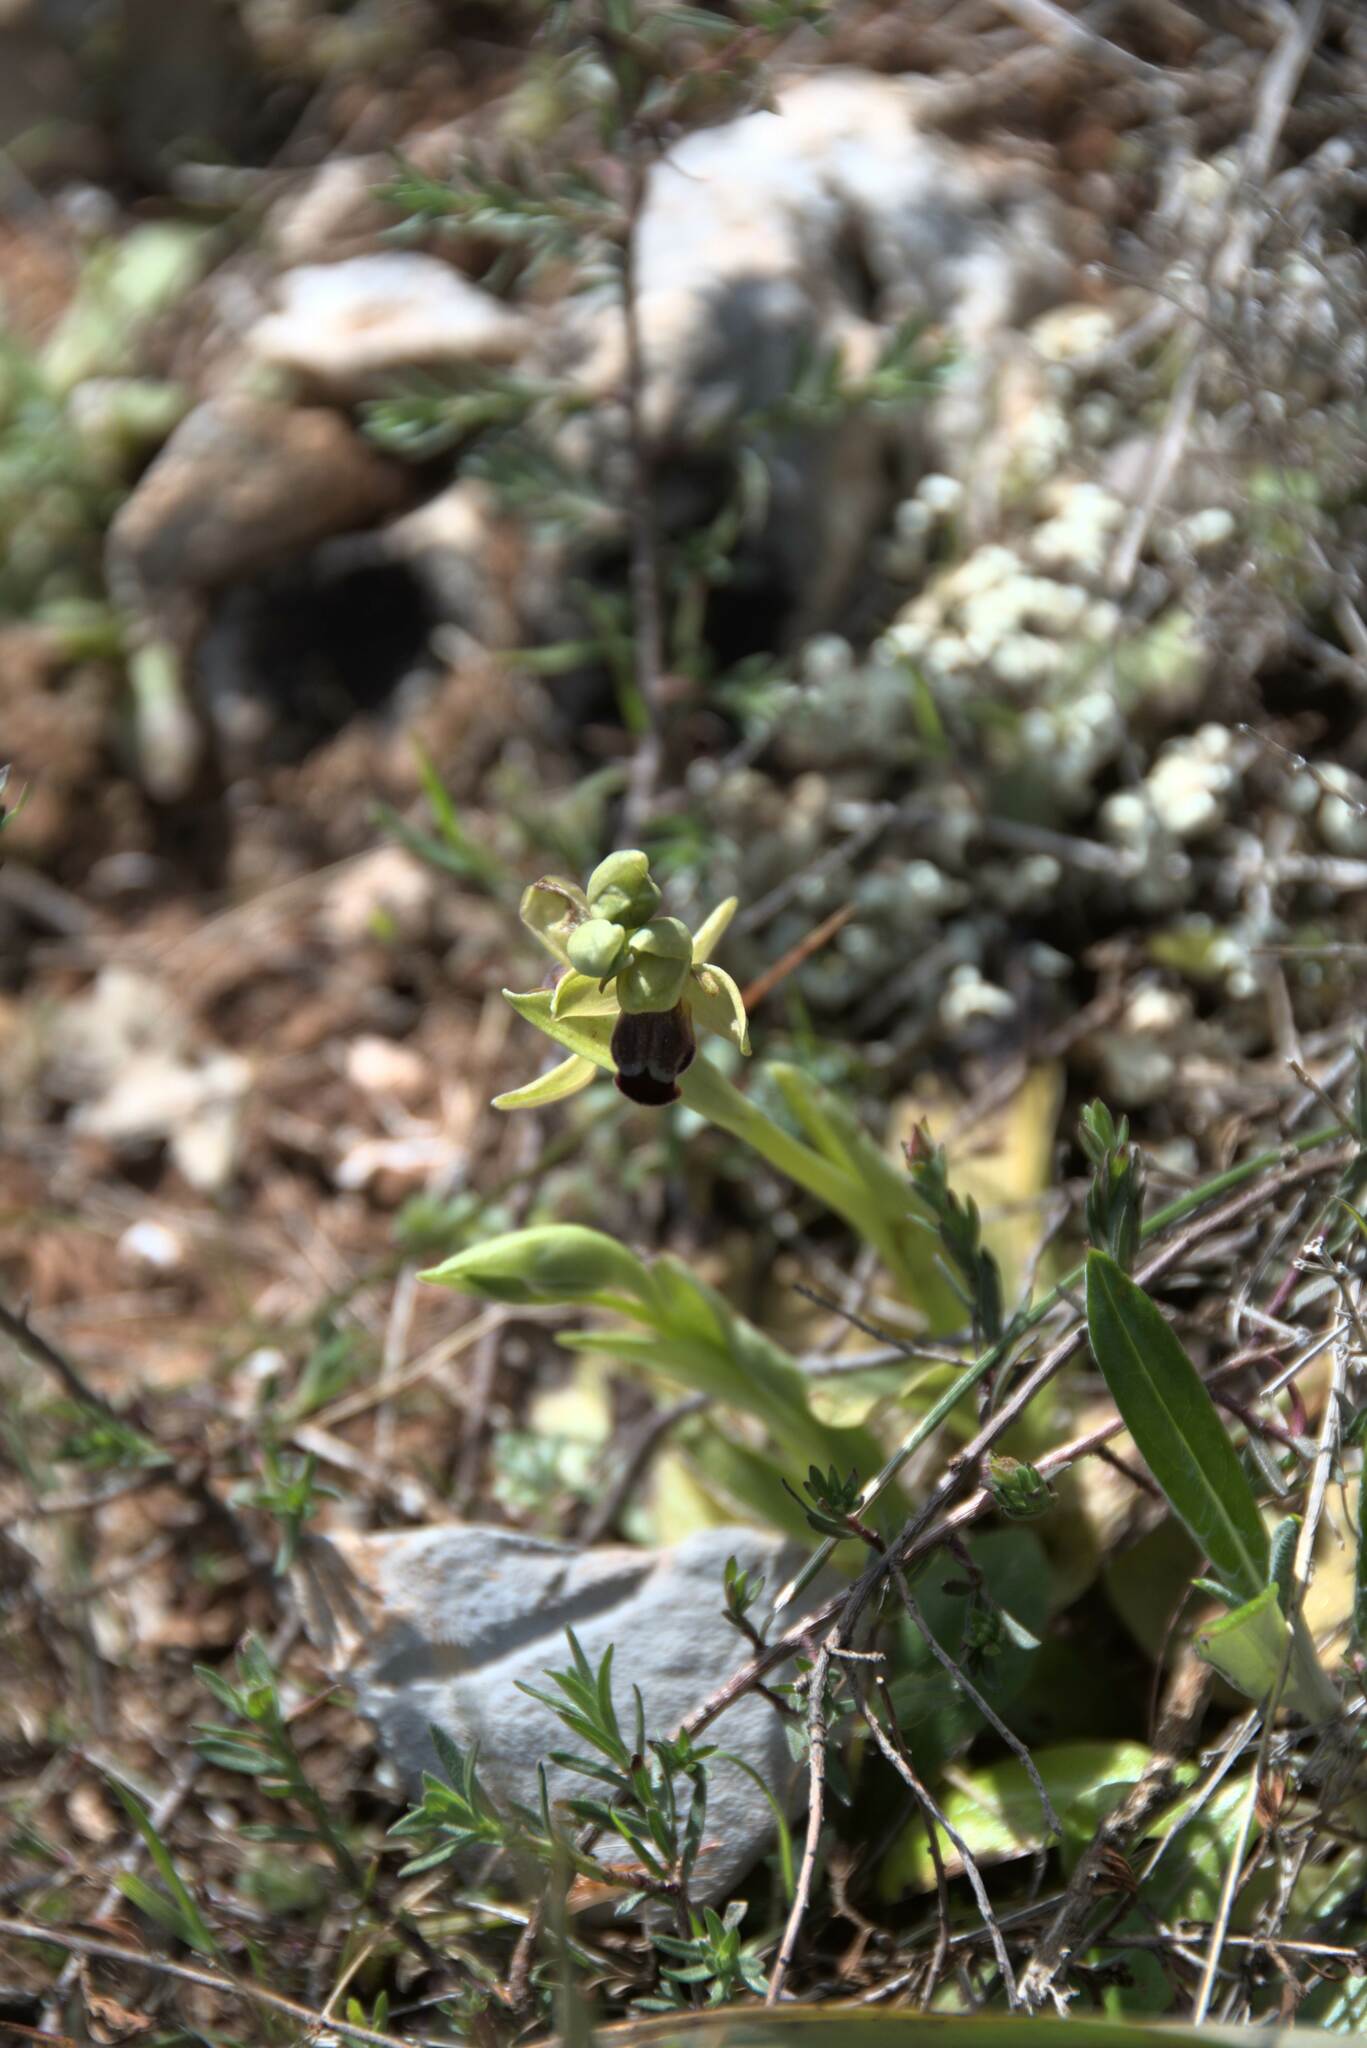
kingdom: Plantae
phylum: Tracheophyta
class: Liliopsida
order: Asparagales
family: Orchidaceae
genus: Ophrys
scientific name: Ophrys fusca
